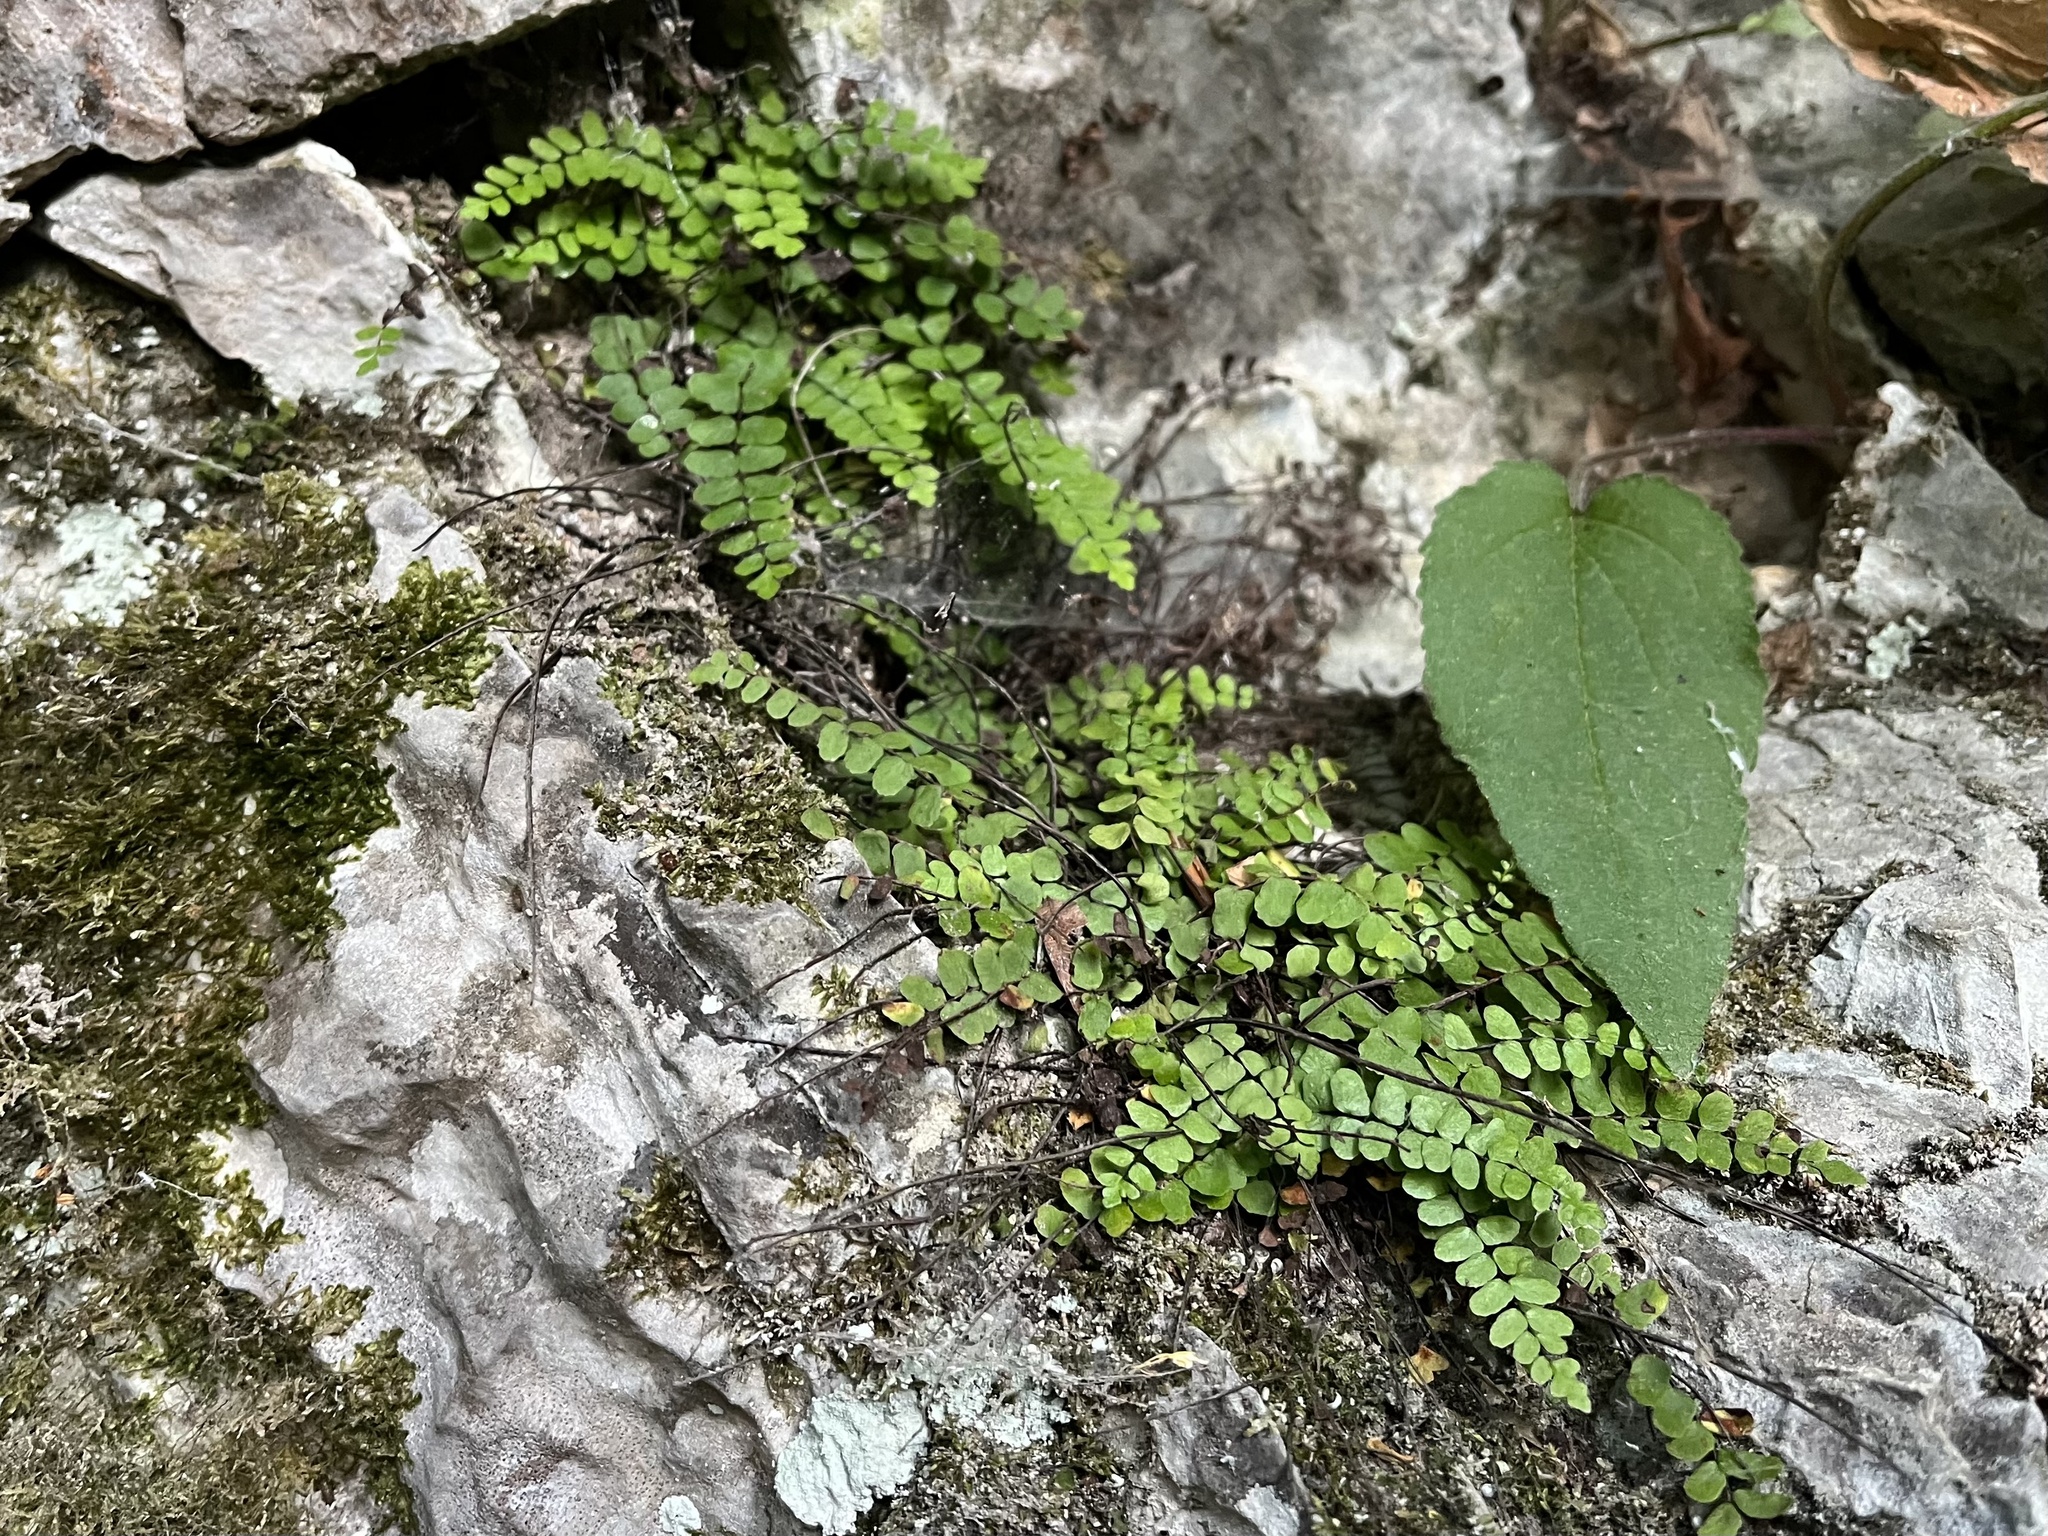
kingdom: Plantae
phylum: Tracheophyta
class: Polypodiopsida
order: Polypodiales
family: Aspleniaceae
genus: Asplenium
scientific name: Asplenium trichomanes
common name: Maidenhair spleenwort
